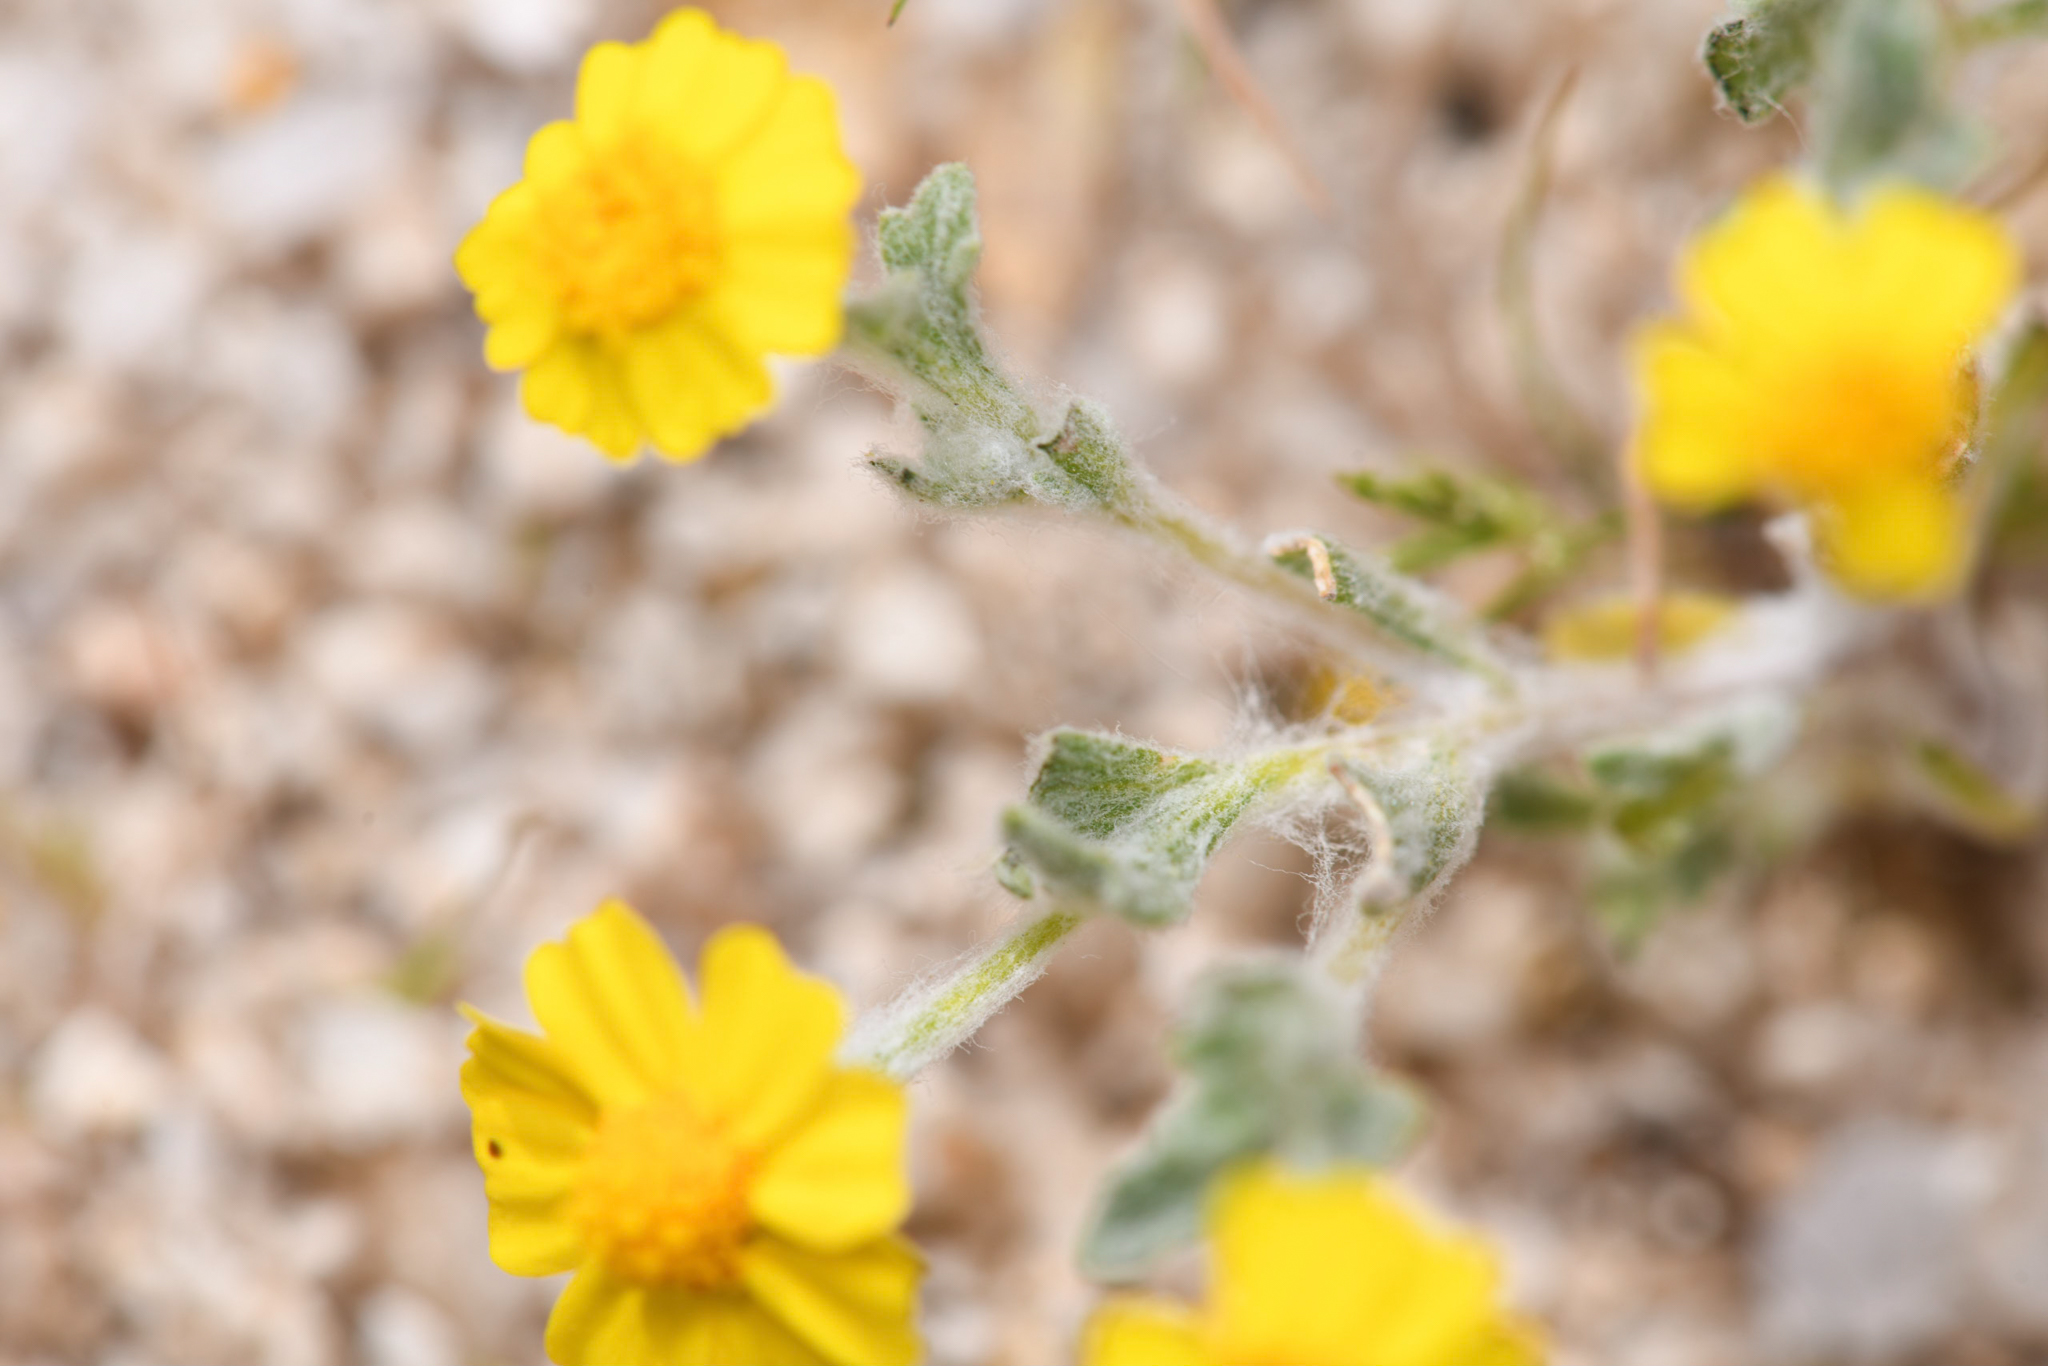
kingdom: Plantae
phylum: Tracheophyta
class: Magnoliopsida
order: Asterales
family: Asteraceae
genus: Eriophyllum
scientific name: Eriophyllum wallacei
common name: Wallace's woolly daisy
